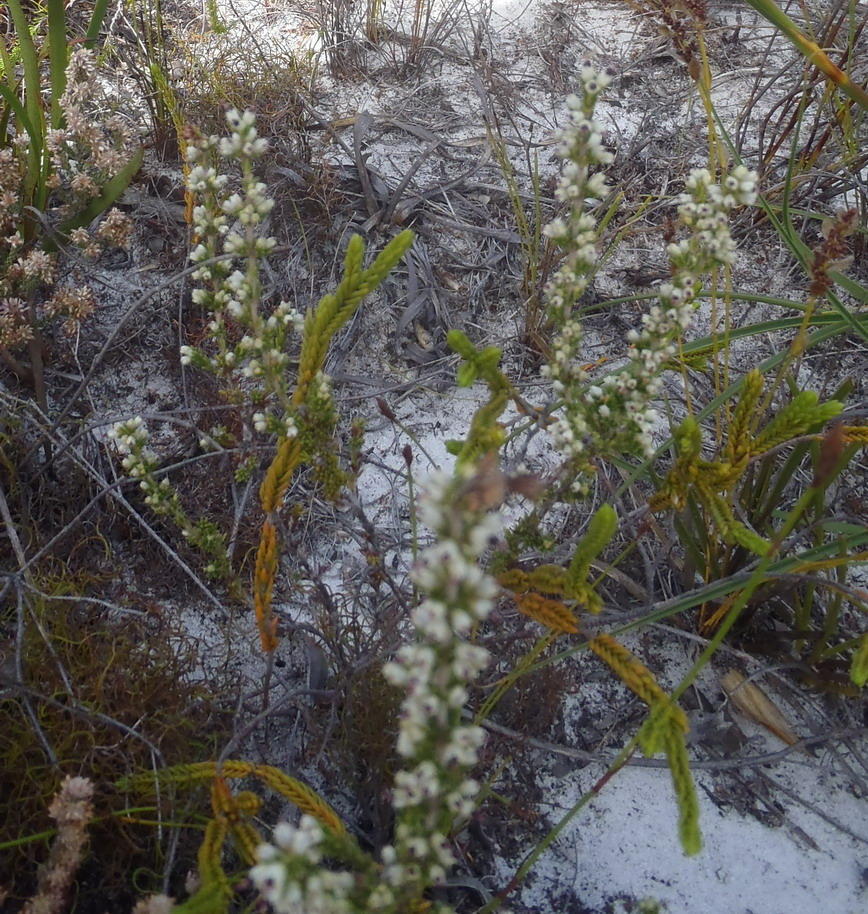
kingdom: Plantae
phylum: Tracheophyta
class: Magnoliopsida
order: Ericales
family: Ericaceae
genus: Erica
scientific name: Erica lasciva
